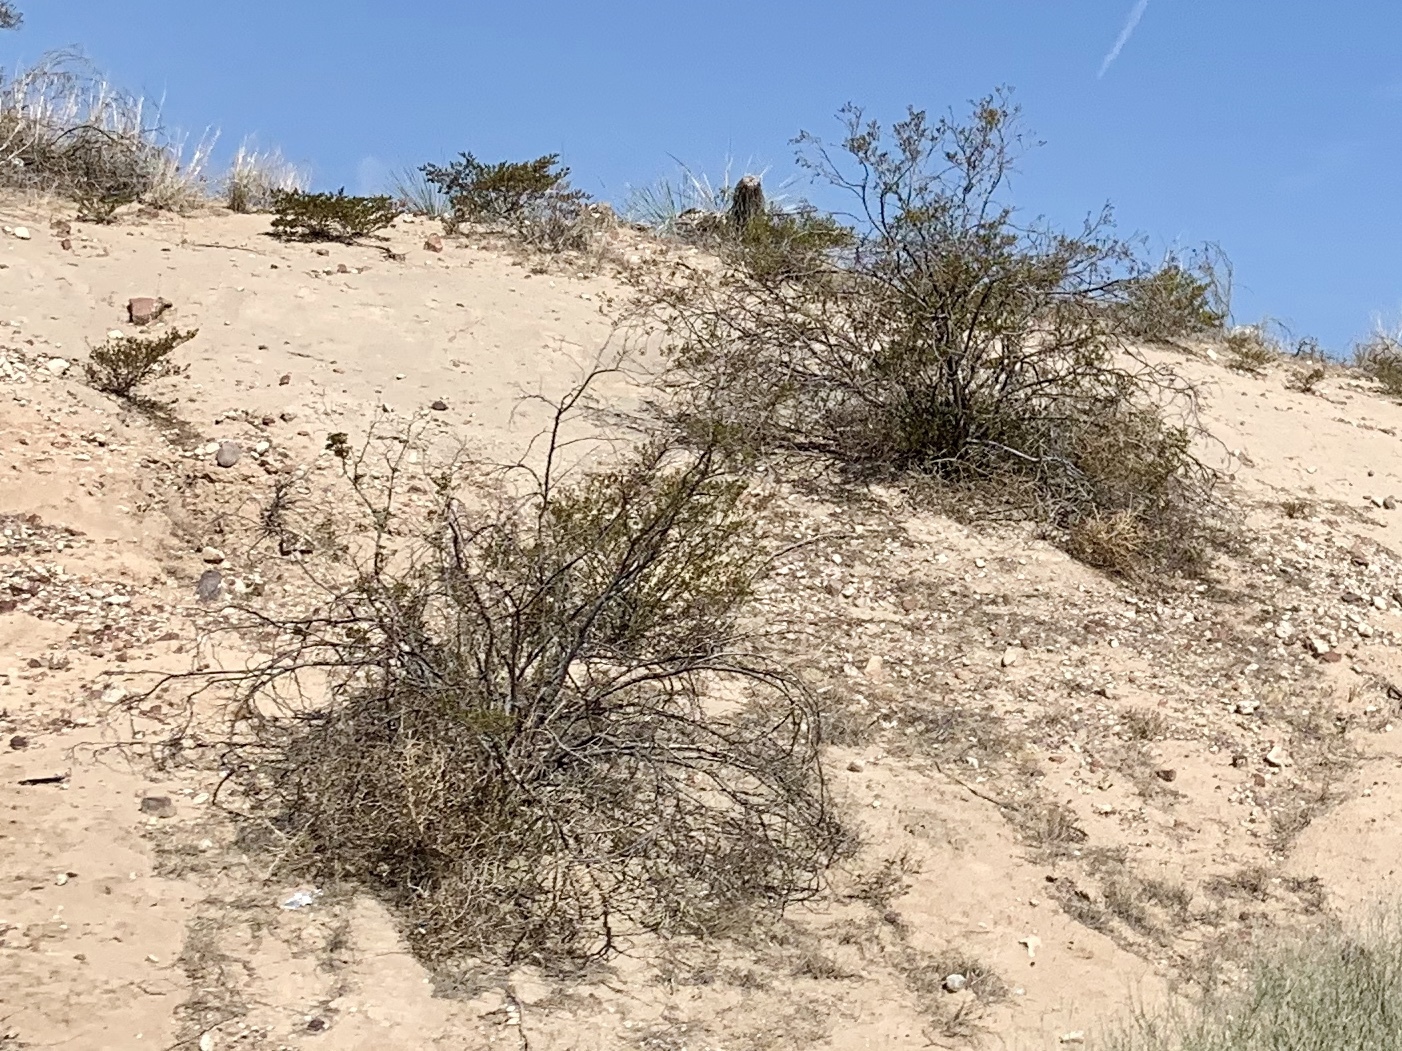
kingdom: Plantae
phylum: Tracheophyta
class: Magnoliopsida
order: Zygophyllales
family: Zygophyllaceae
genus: Larrea
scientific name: Larrea tridentata
